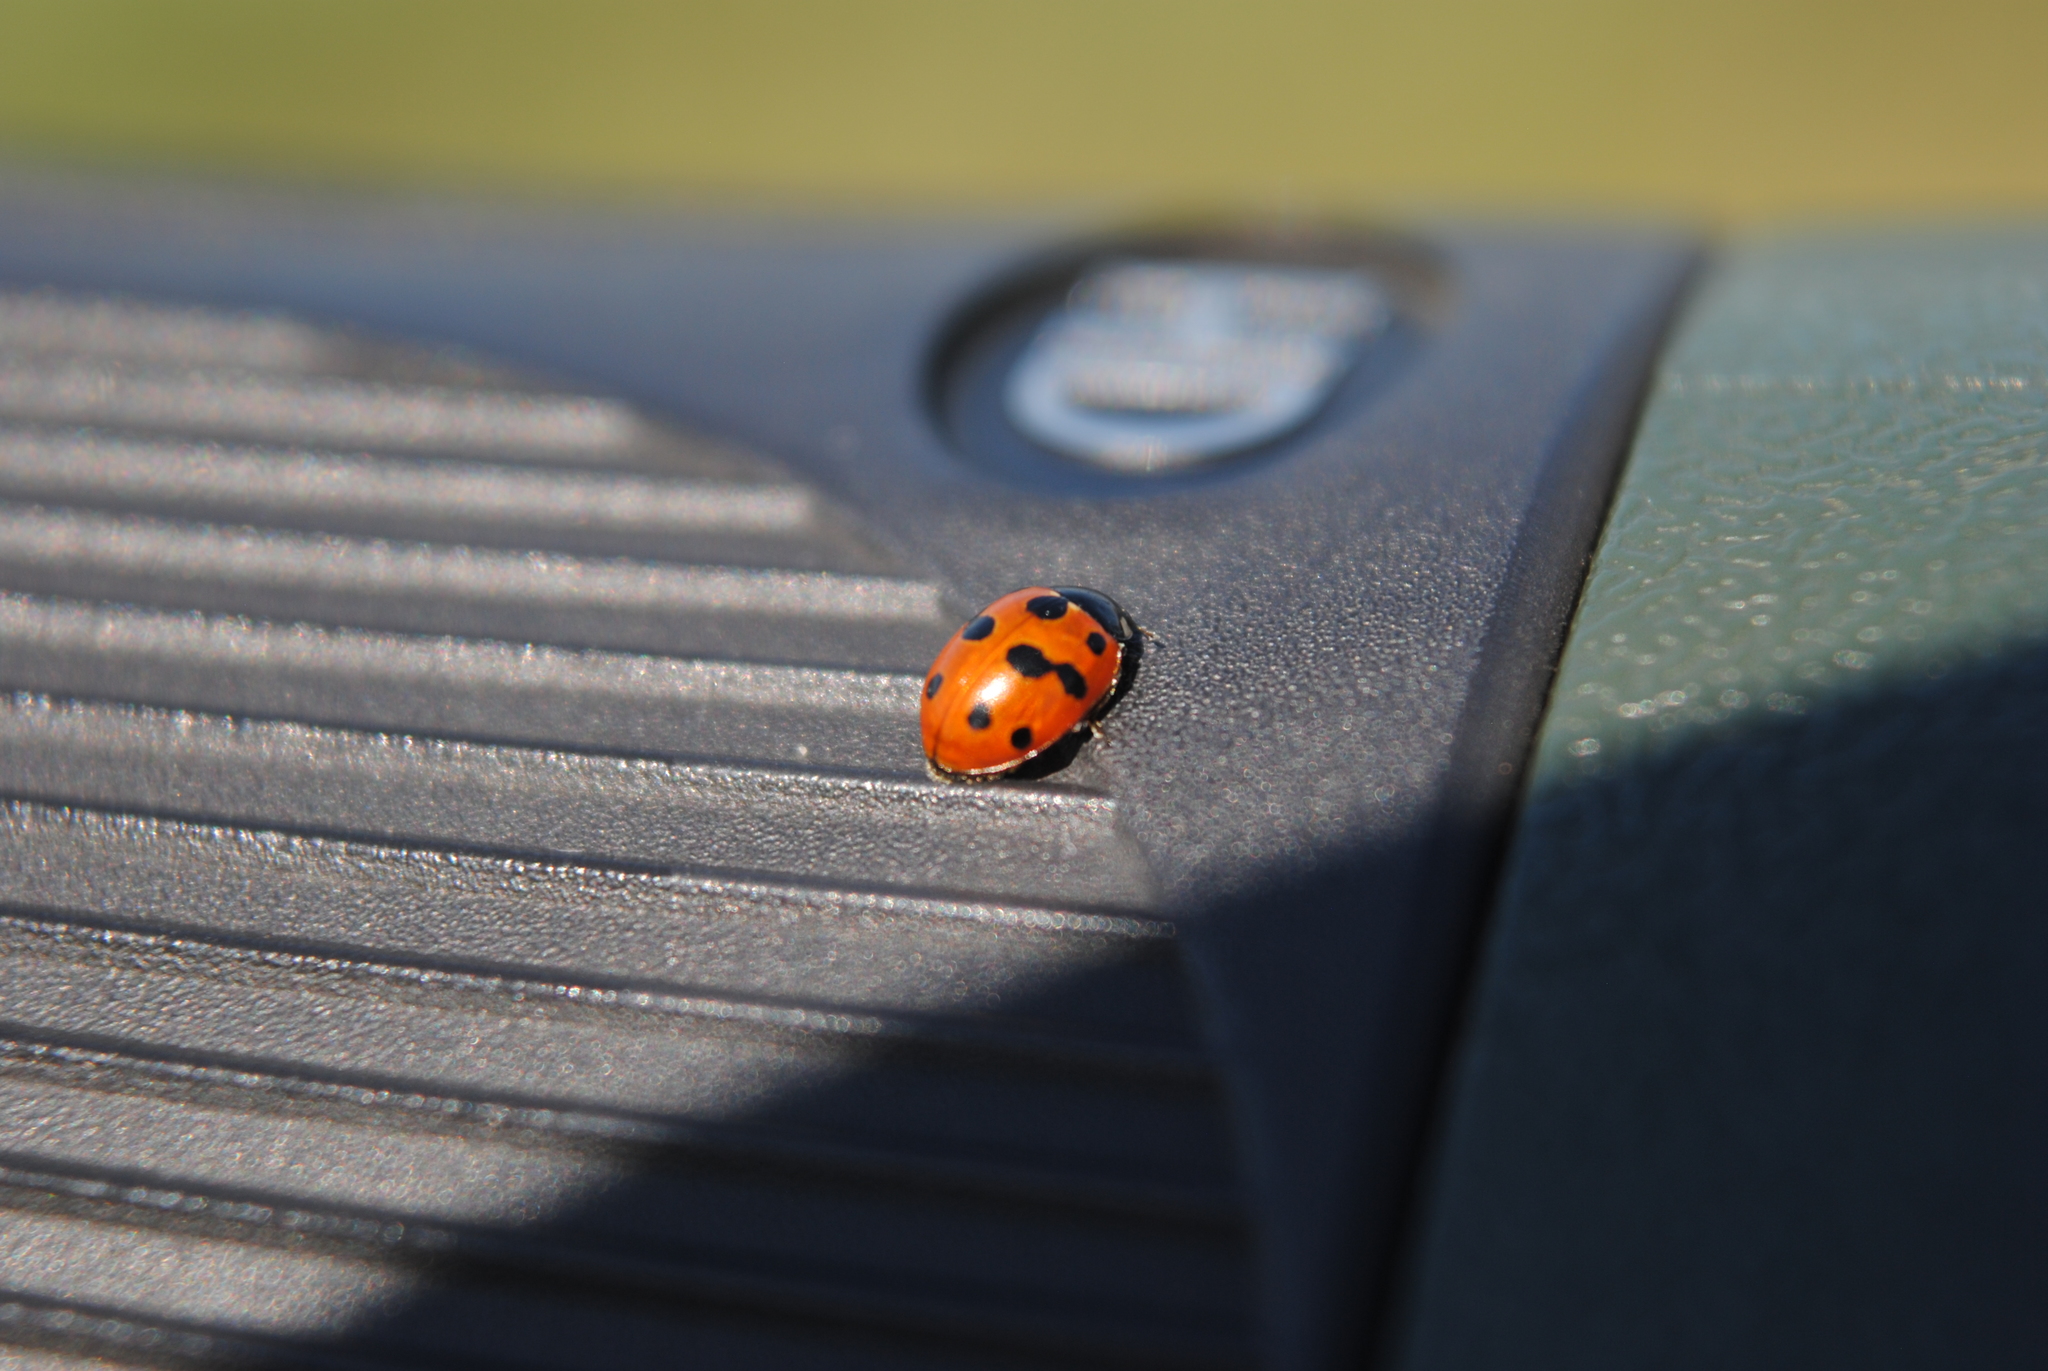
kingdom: Animalia
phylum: Arthropoda
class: Insecta
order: Coleoptera
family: Coccinellidae
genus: Coccinella
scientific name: Coccinella undecimpunctata
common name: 11-spot ladybird
